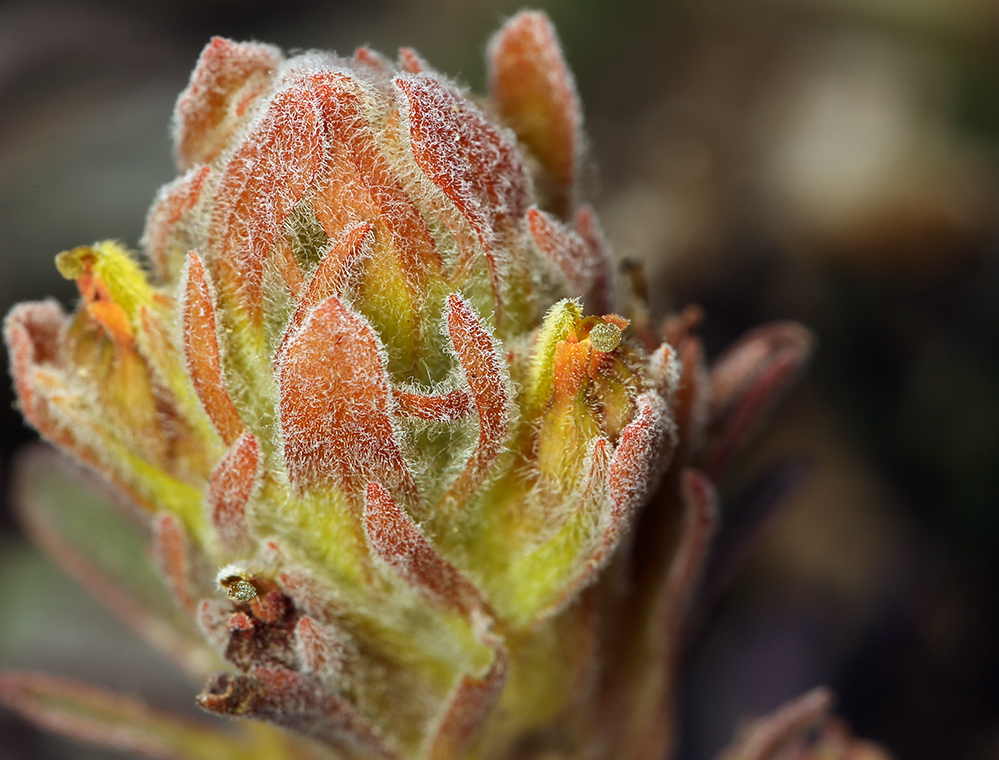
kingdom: Plantae
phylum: Tracheophyta
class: Magnoliopsida
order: Lamiales
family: Orobanchaceae
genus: Castilleja
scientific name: Castilleja arachnoidea
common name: Cobwebby indian paintbrush
